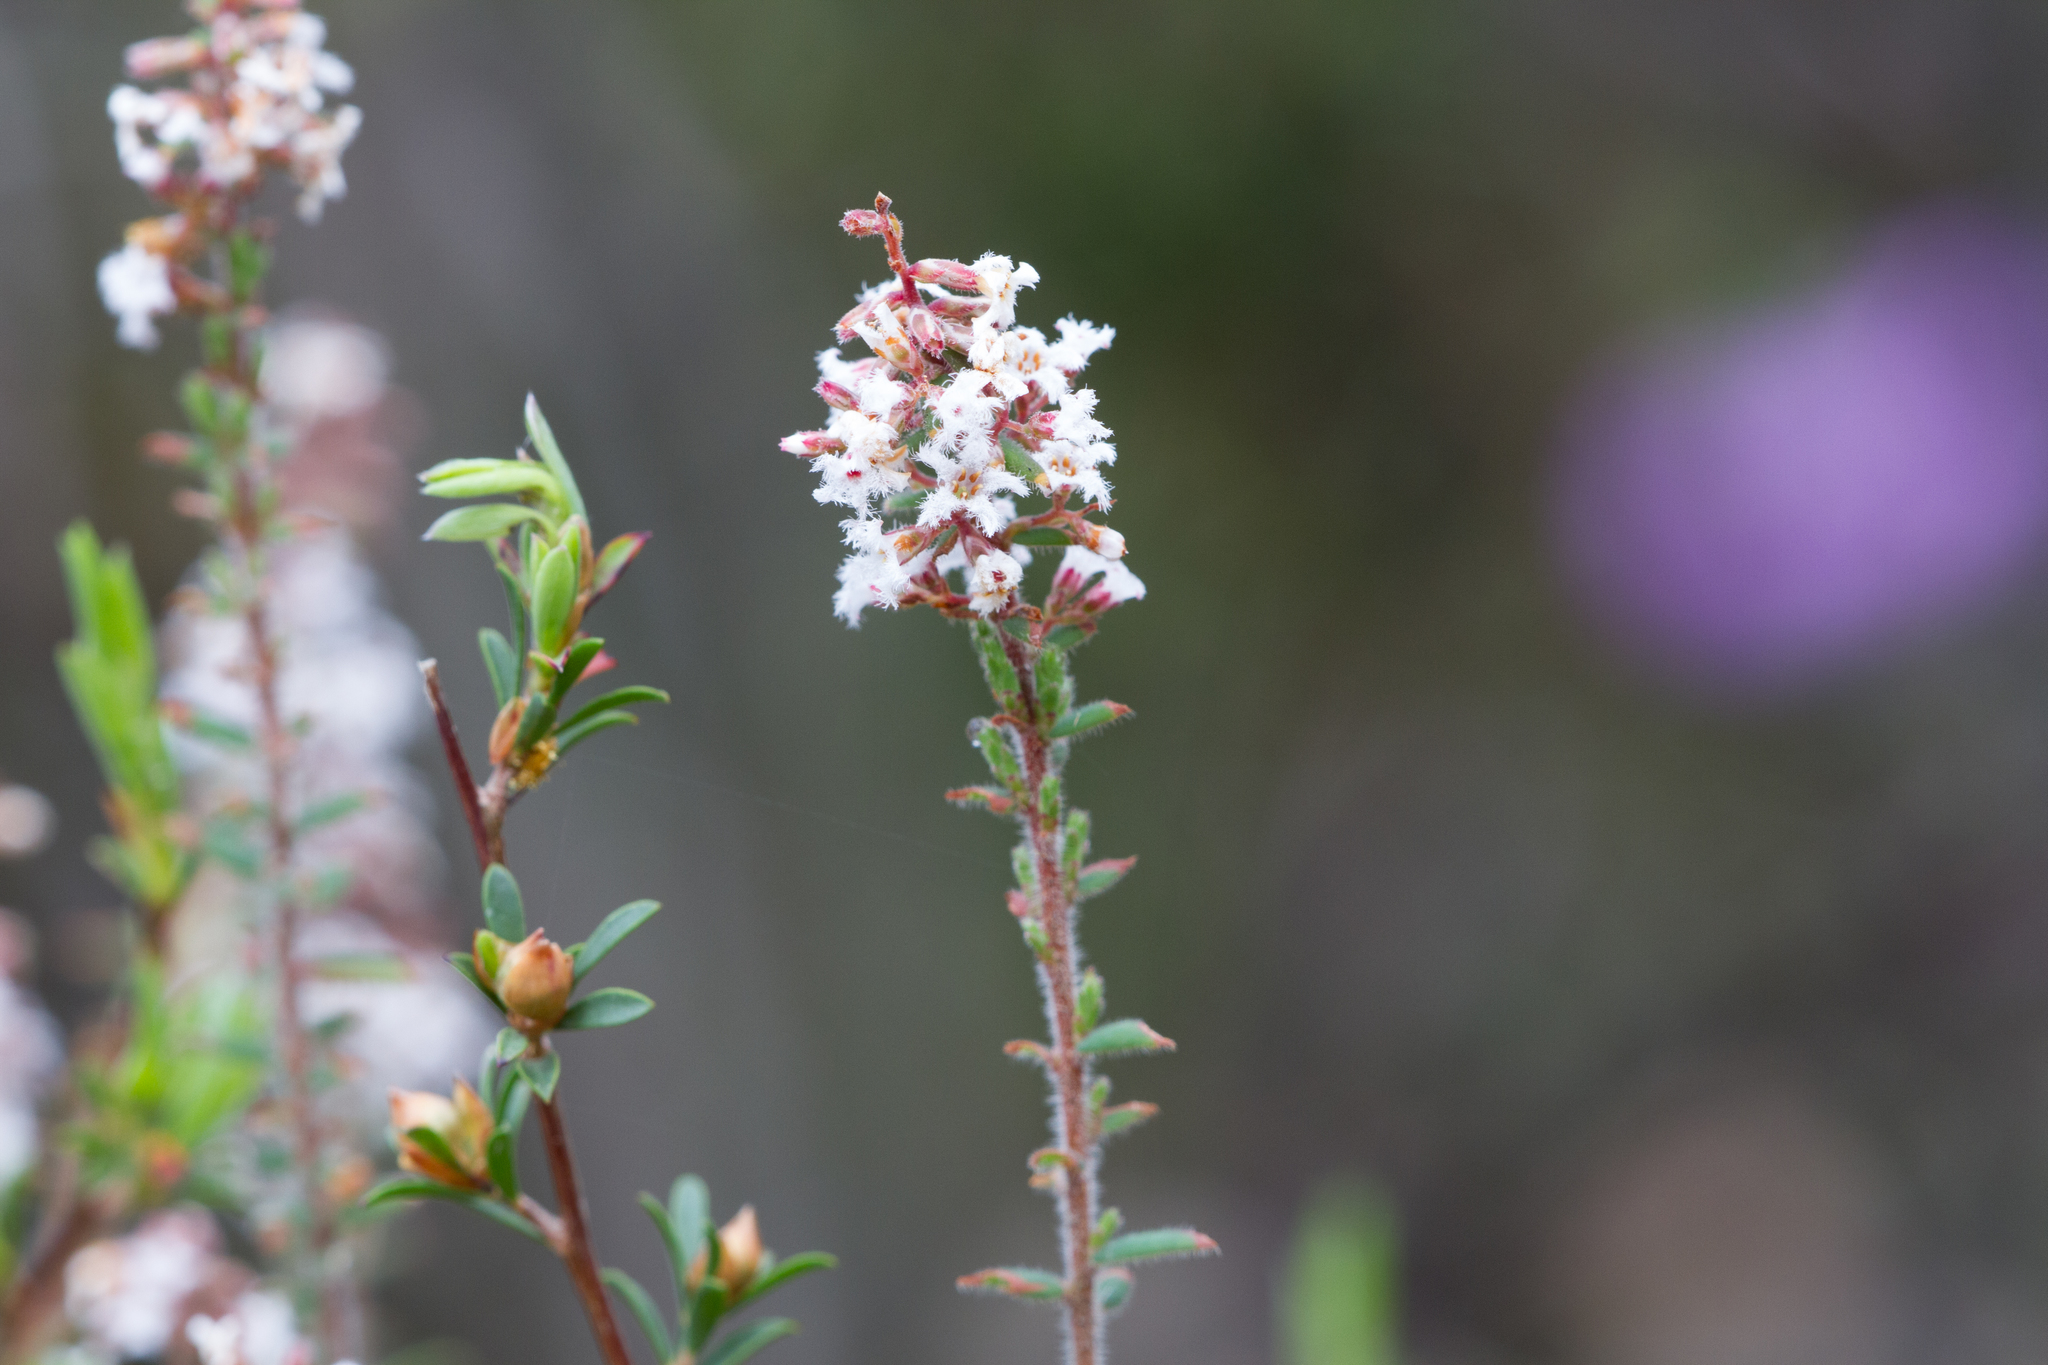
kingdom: Plantae
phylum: Tracheophyta
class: Magnoliopsida
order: Ericales
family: Ericaceae
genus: Leucopogon
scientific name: Leucopogon thymifolius
